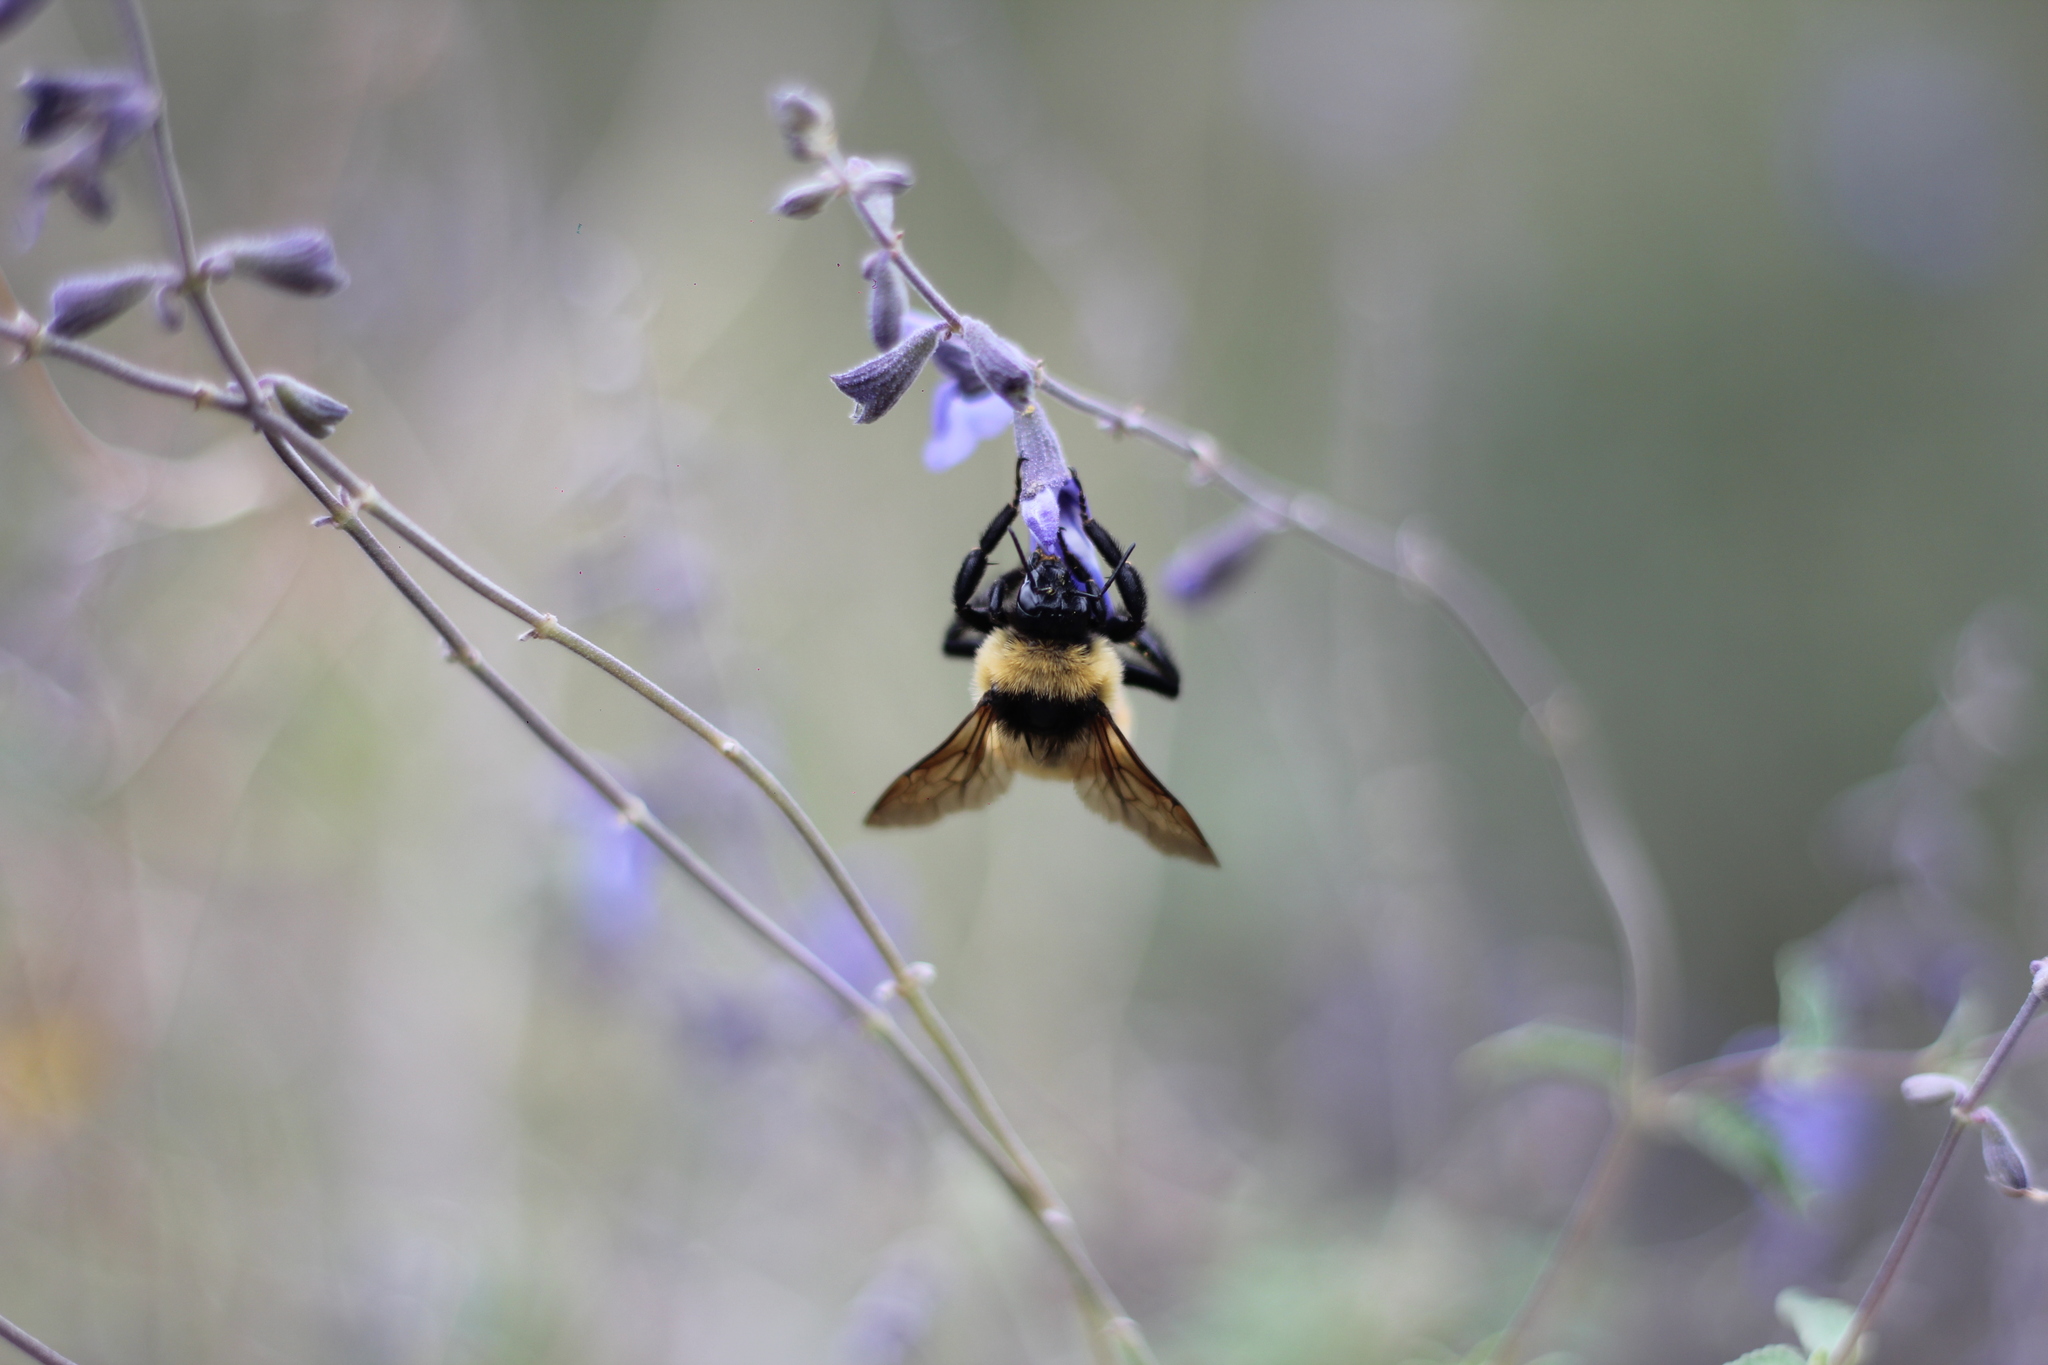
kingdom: Animalia
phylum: Arthropoda
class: Insecta
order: Hymenoptera
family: Apidae
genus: Bombus
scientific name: Bombus opifex
